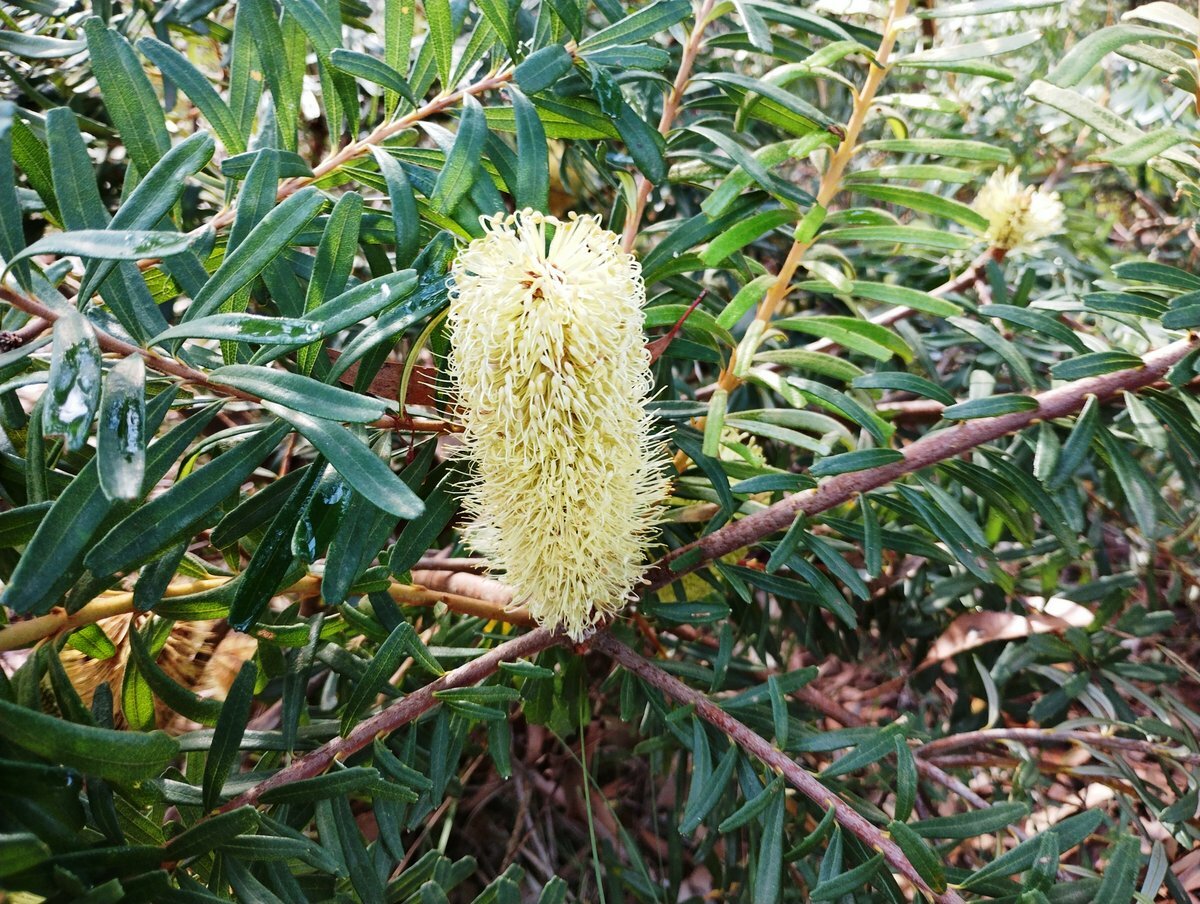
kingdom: Plantae
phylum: Tracheophyta
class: Magnoliopsida
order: Proteales
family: Proteaceae
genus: Banksia
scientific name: Banksia marginata
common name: Silver banksia
